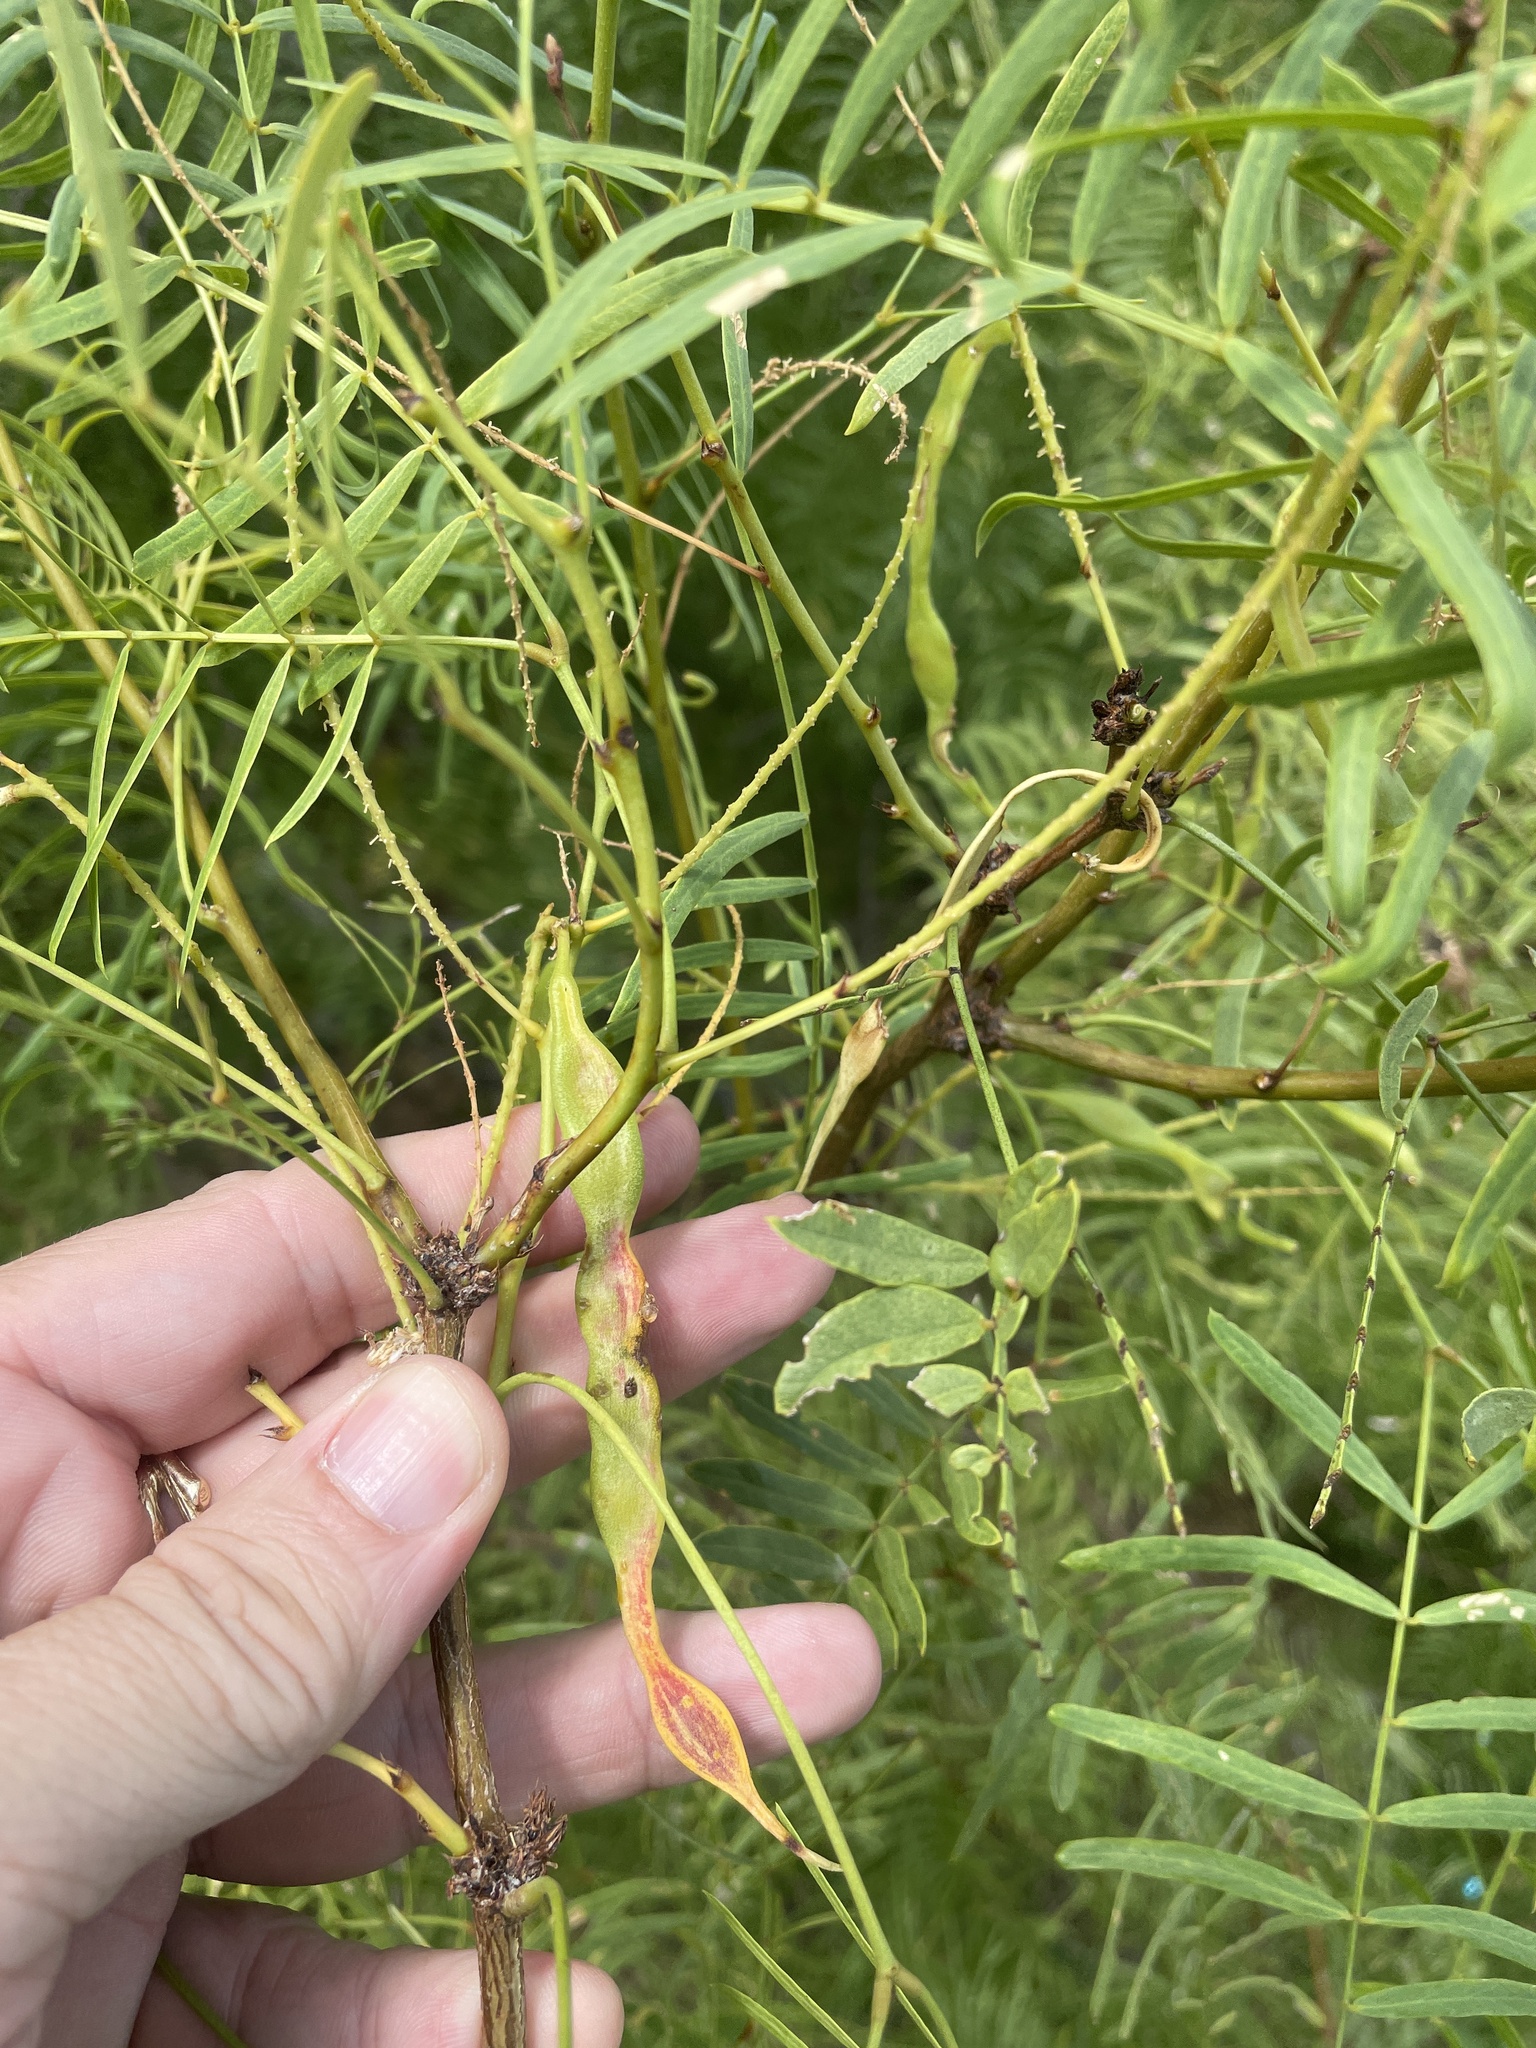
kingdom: Plantae
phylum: Tracheophyta
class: Magnoliopsida
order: Fabales
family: Fabaceae
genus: Prosopis
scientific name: Prosopis glandulosa
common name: Honey mesquite
